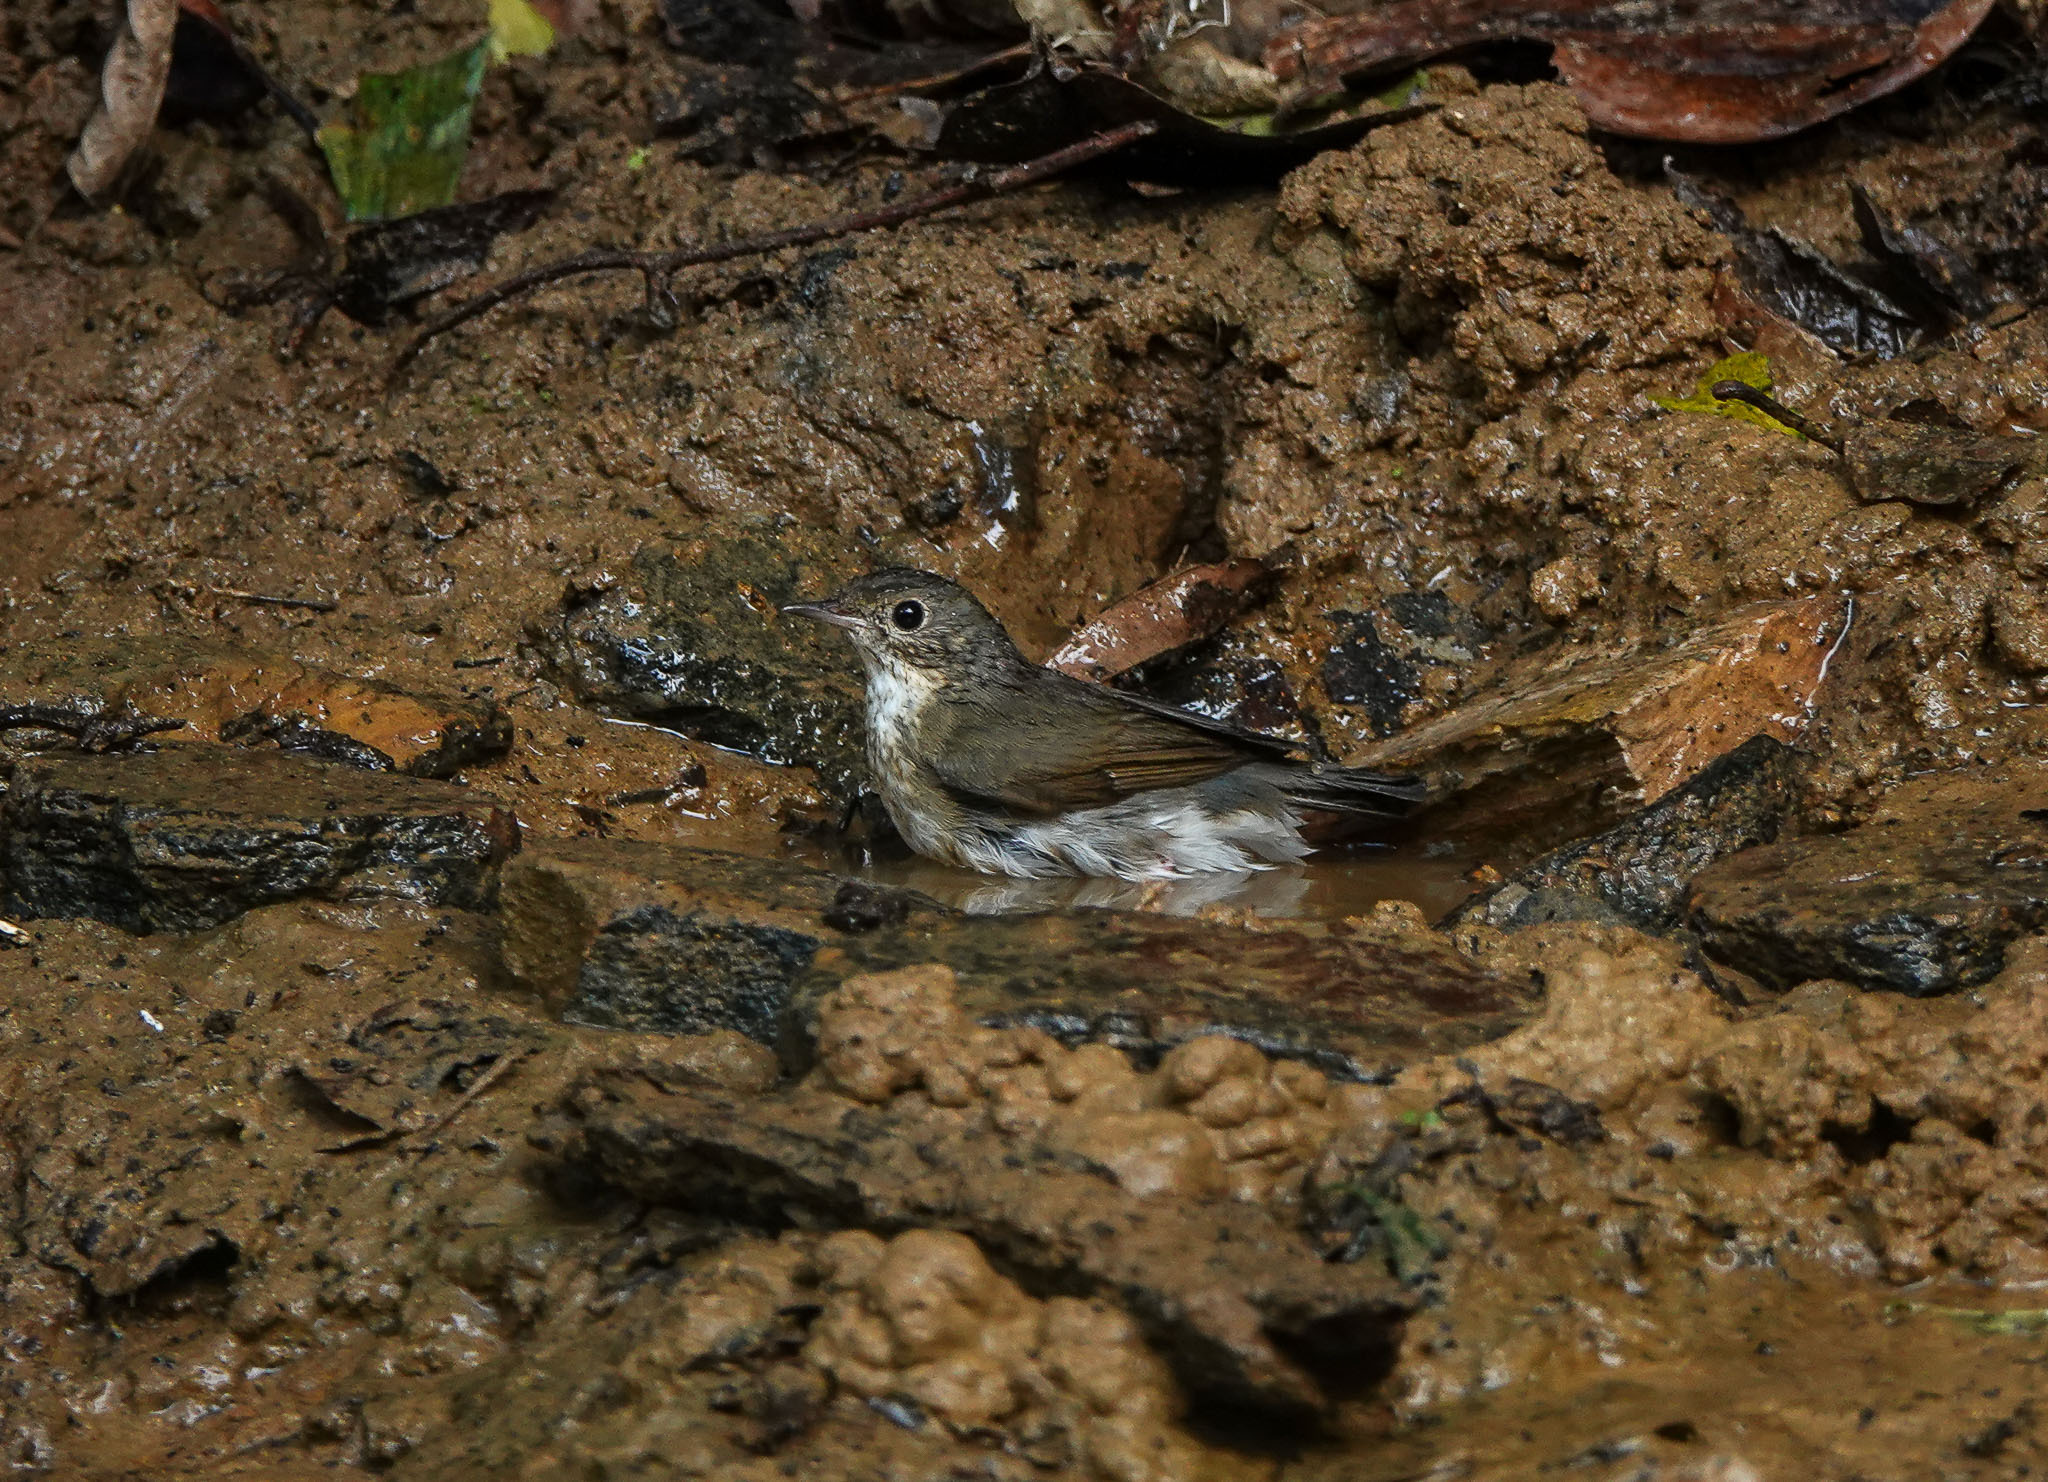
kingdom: Animalia
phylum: Chordata
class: Aves
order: Passeriformes
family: Muscicapidae
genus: Luscinia
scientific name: Luscinia cyane
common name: Siberian blue robin
